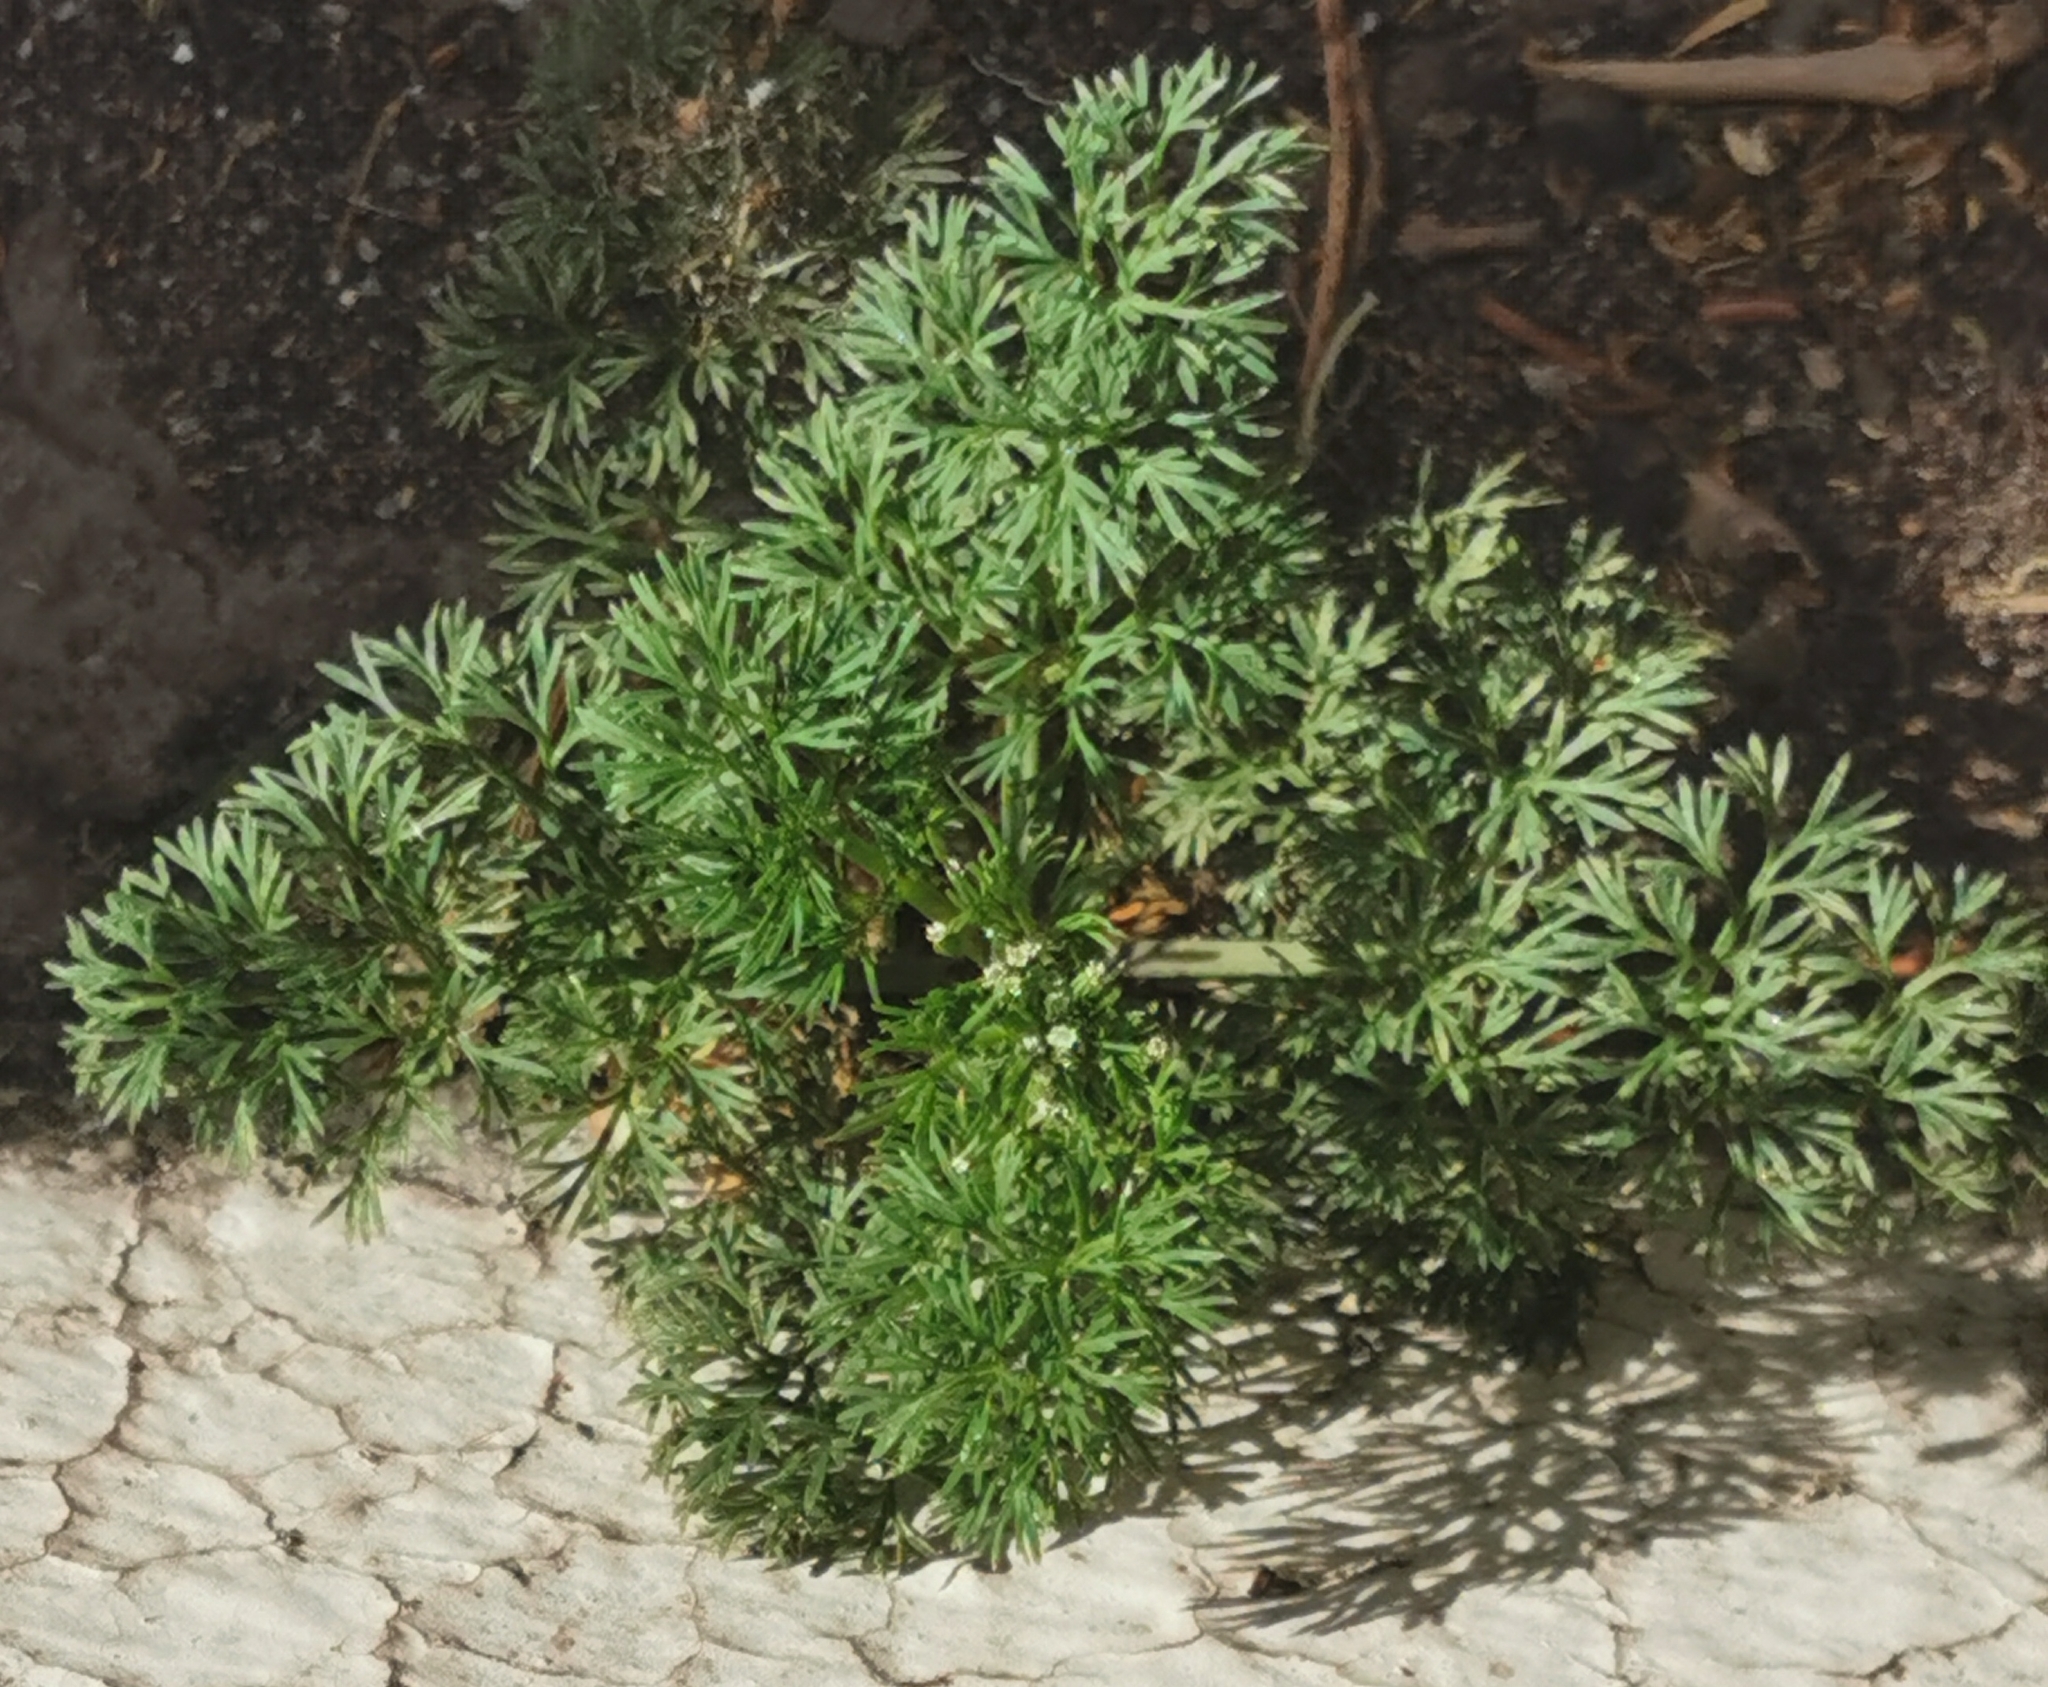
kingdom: Plantae
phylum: Tracheophyta
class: Magnoliopsida
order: Apiales
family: Apiaceae
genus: Cyclospermum
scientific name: Cyclospermum leptophyllum
